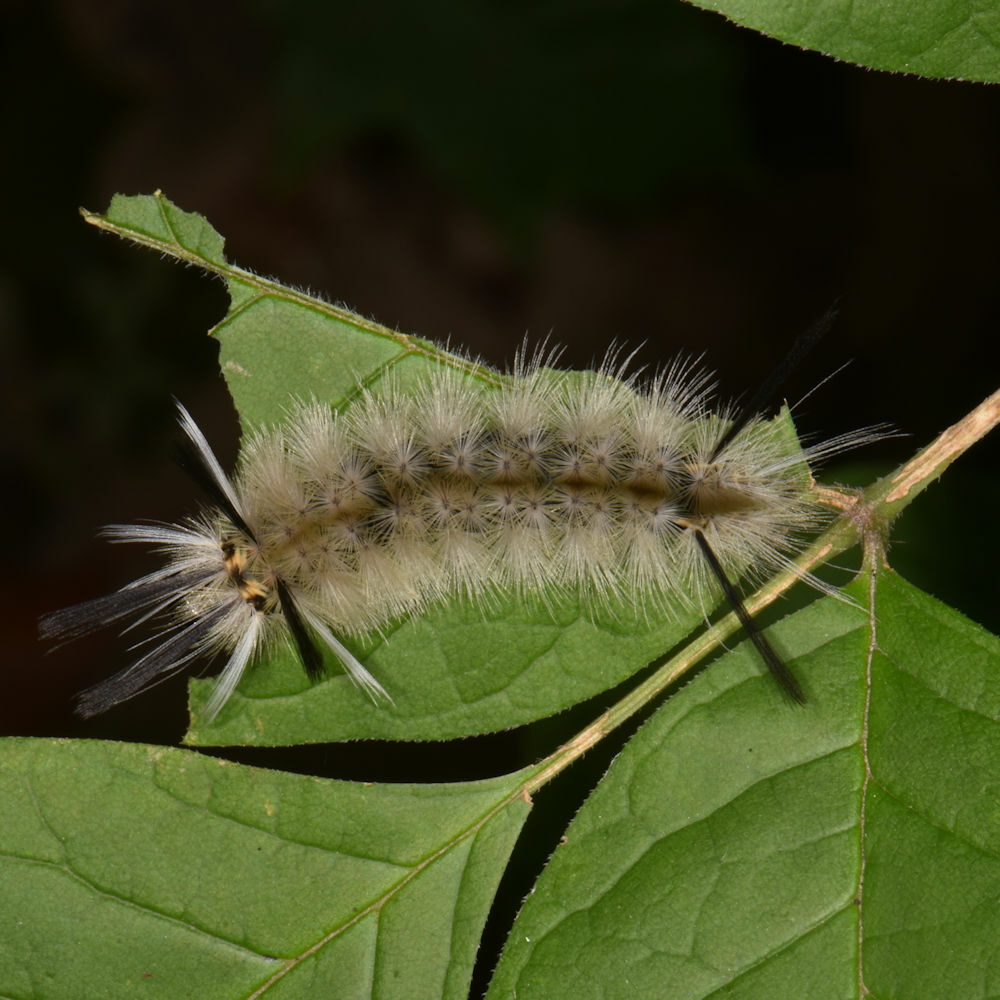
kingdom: Animalia
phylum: Arthropoda
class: Insecta
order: Lepidoptera
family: Erebidae
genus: Halysidota
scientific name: Halysidota tessellaris
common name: Banded tussock moth
